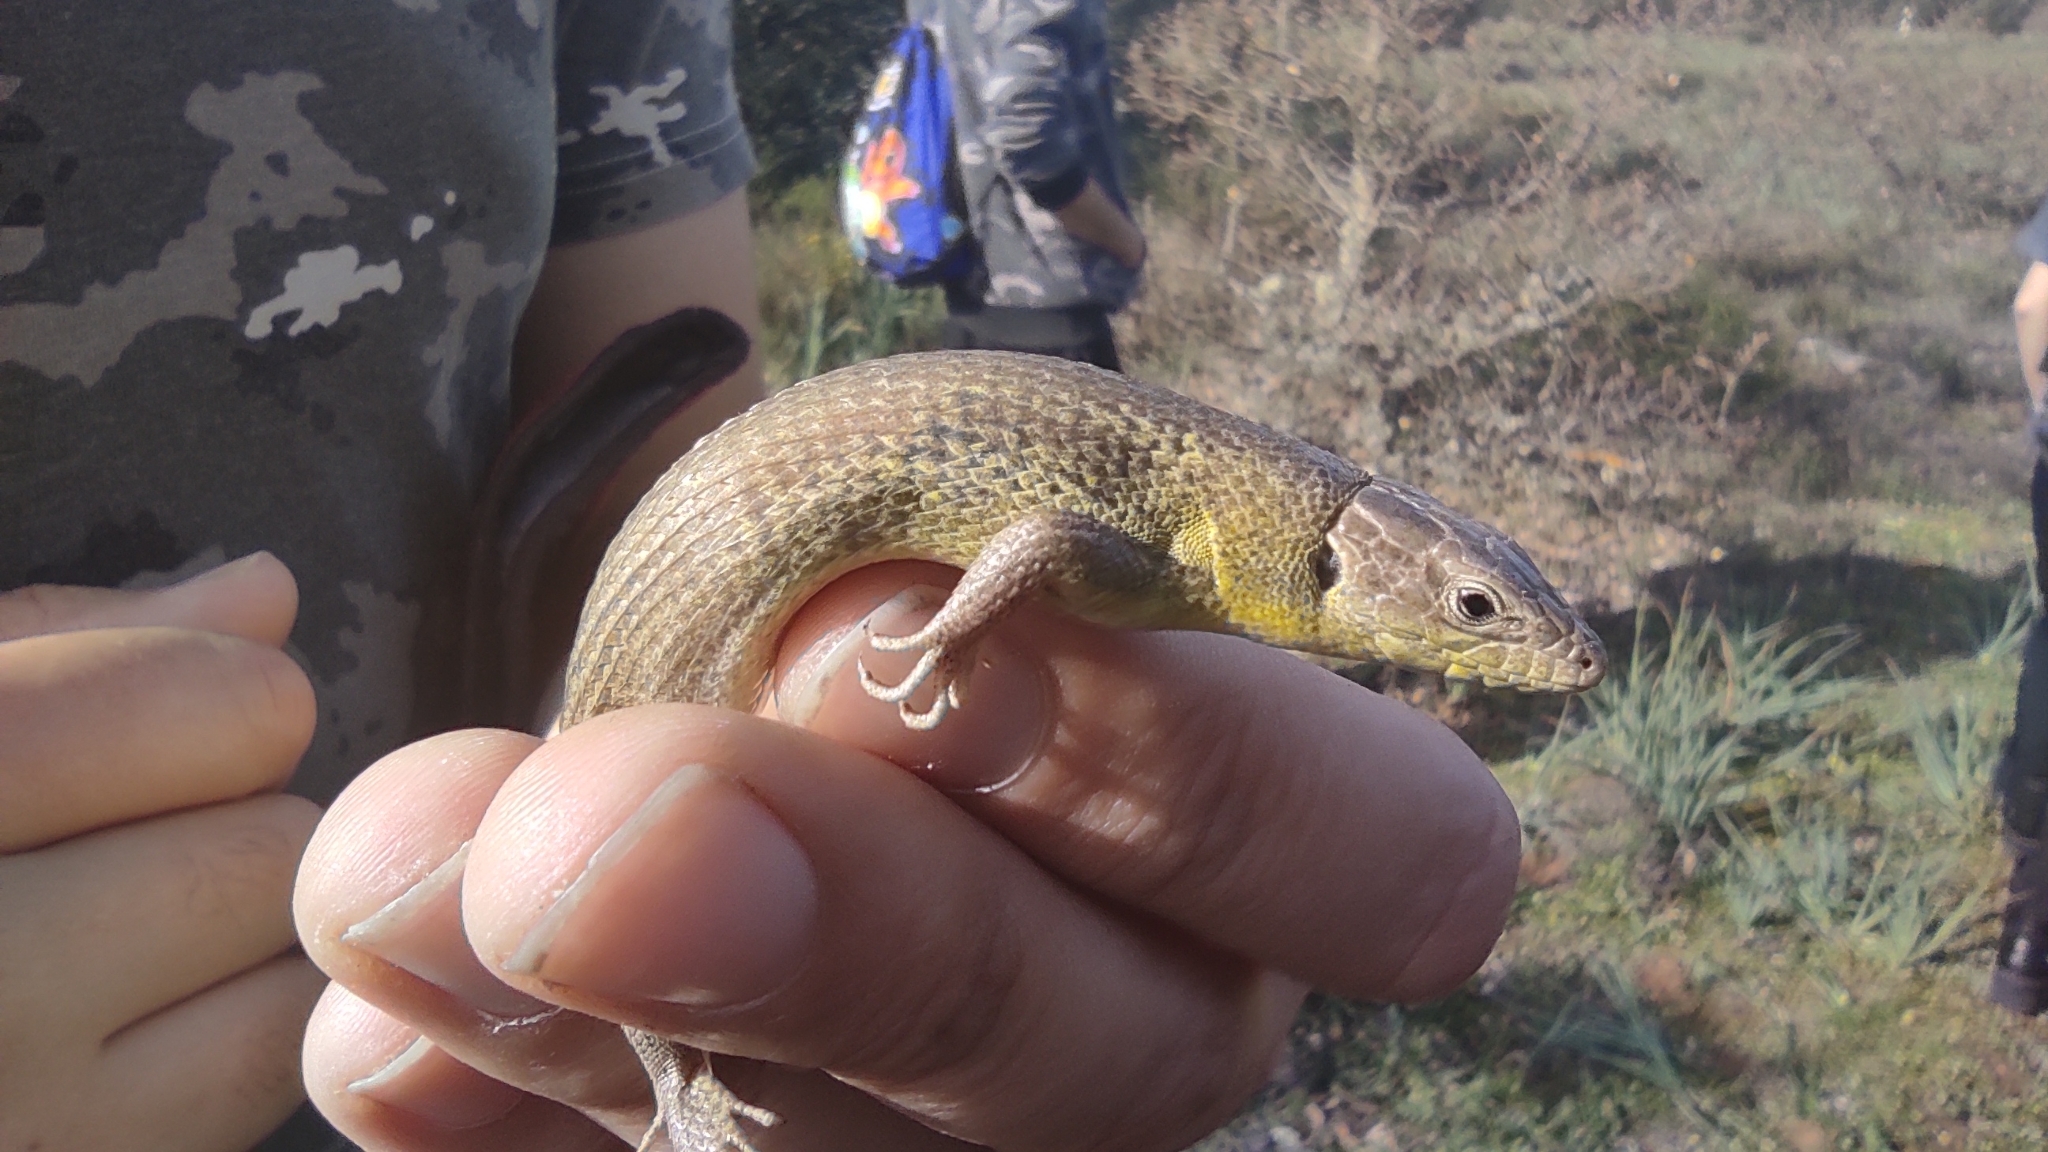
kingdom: Animalia
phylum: Chordata
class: Squamata
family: Lacertidae
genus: Psammodromus
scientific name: Psammodromus algirus
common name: Algerian psammodromus
